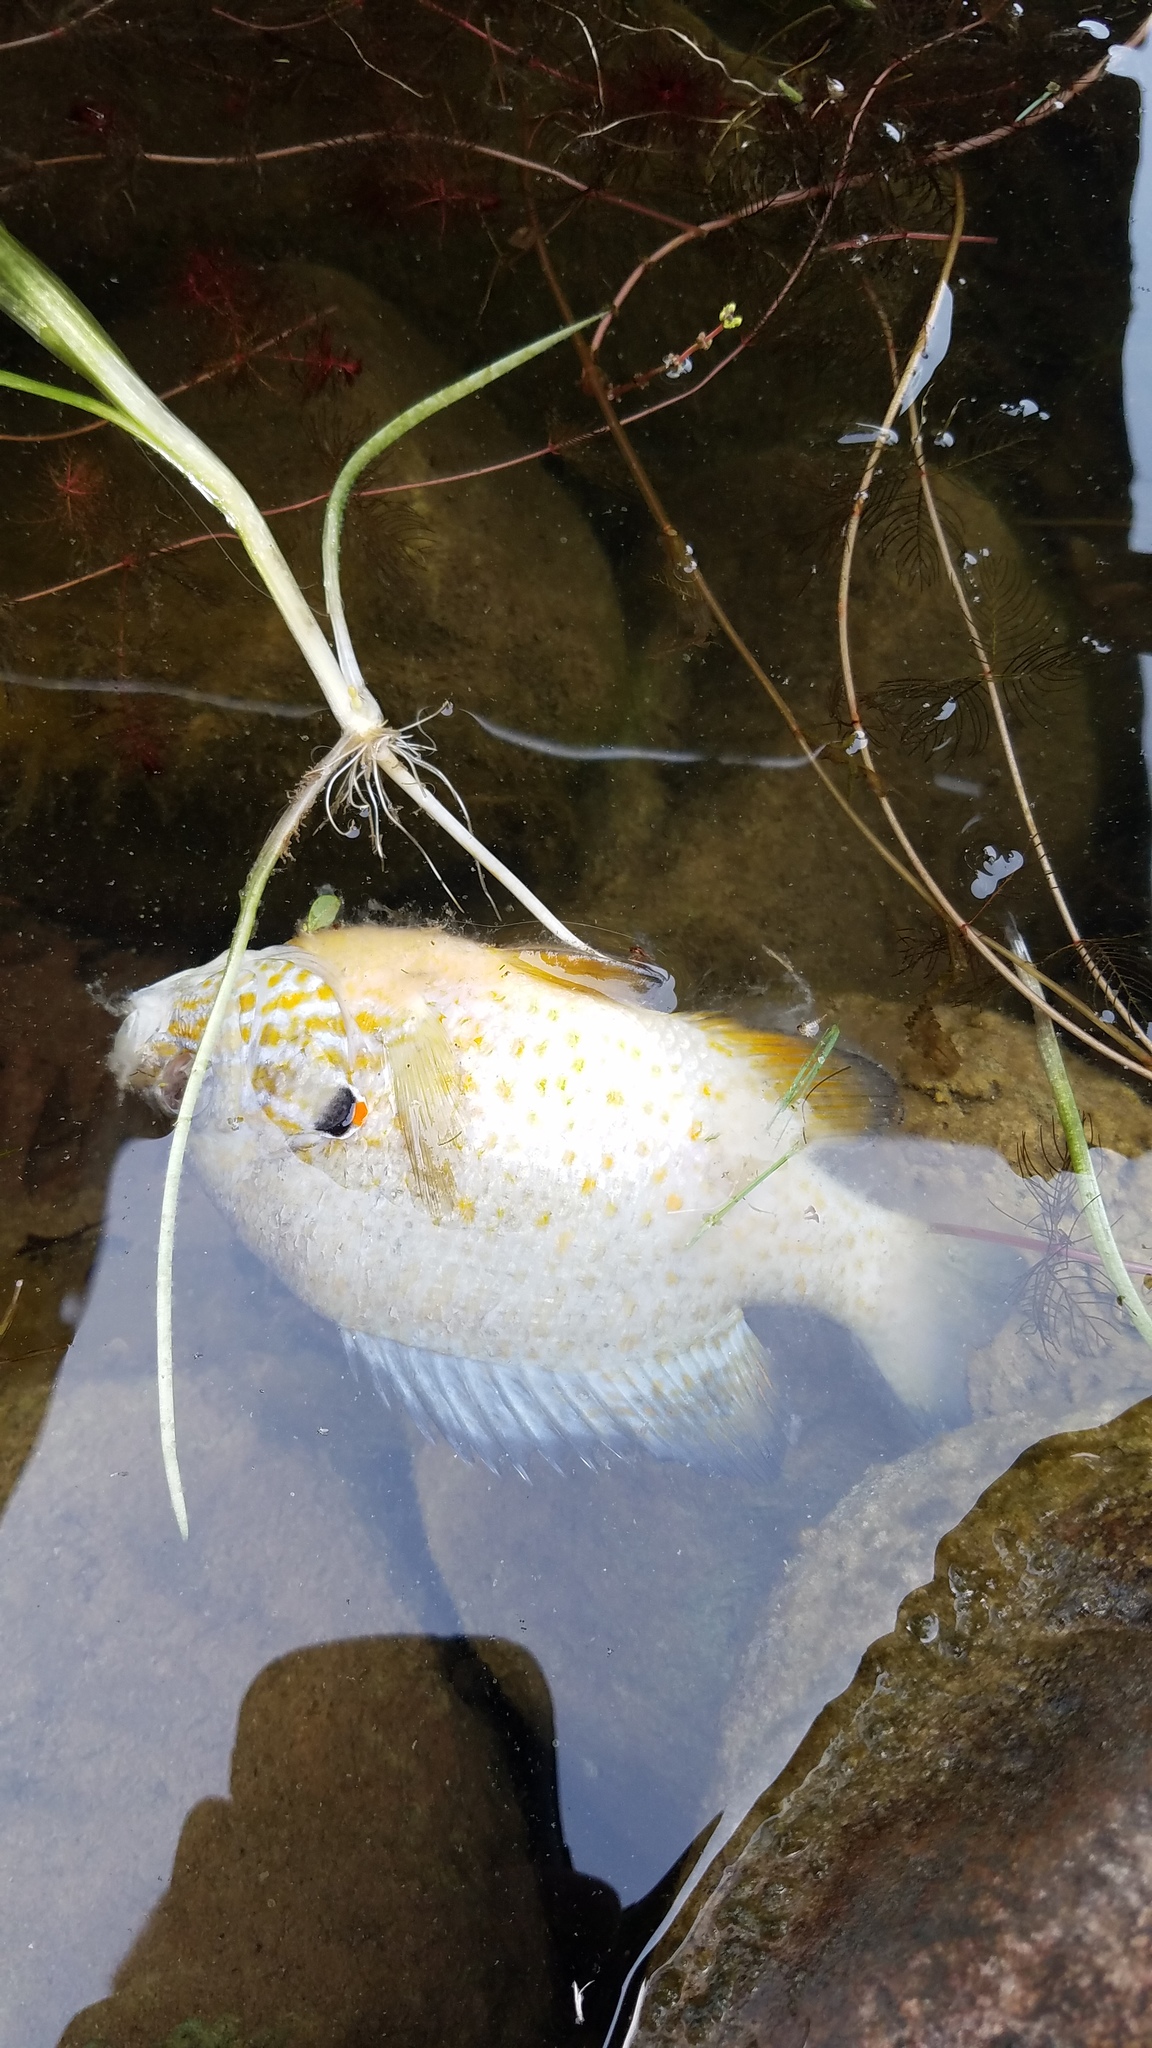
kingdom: Animalia
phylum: Chordata
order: Perciformes
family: Centrarchidae
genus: Lepomis
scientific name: Lepomis gibbosus
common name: Pumpkinseed
